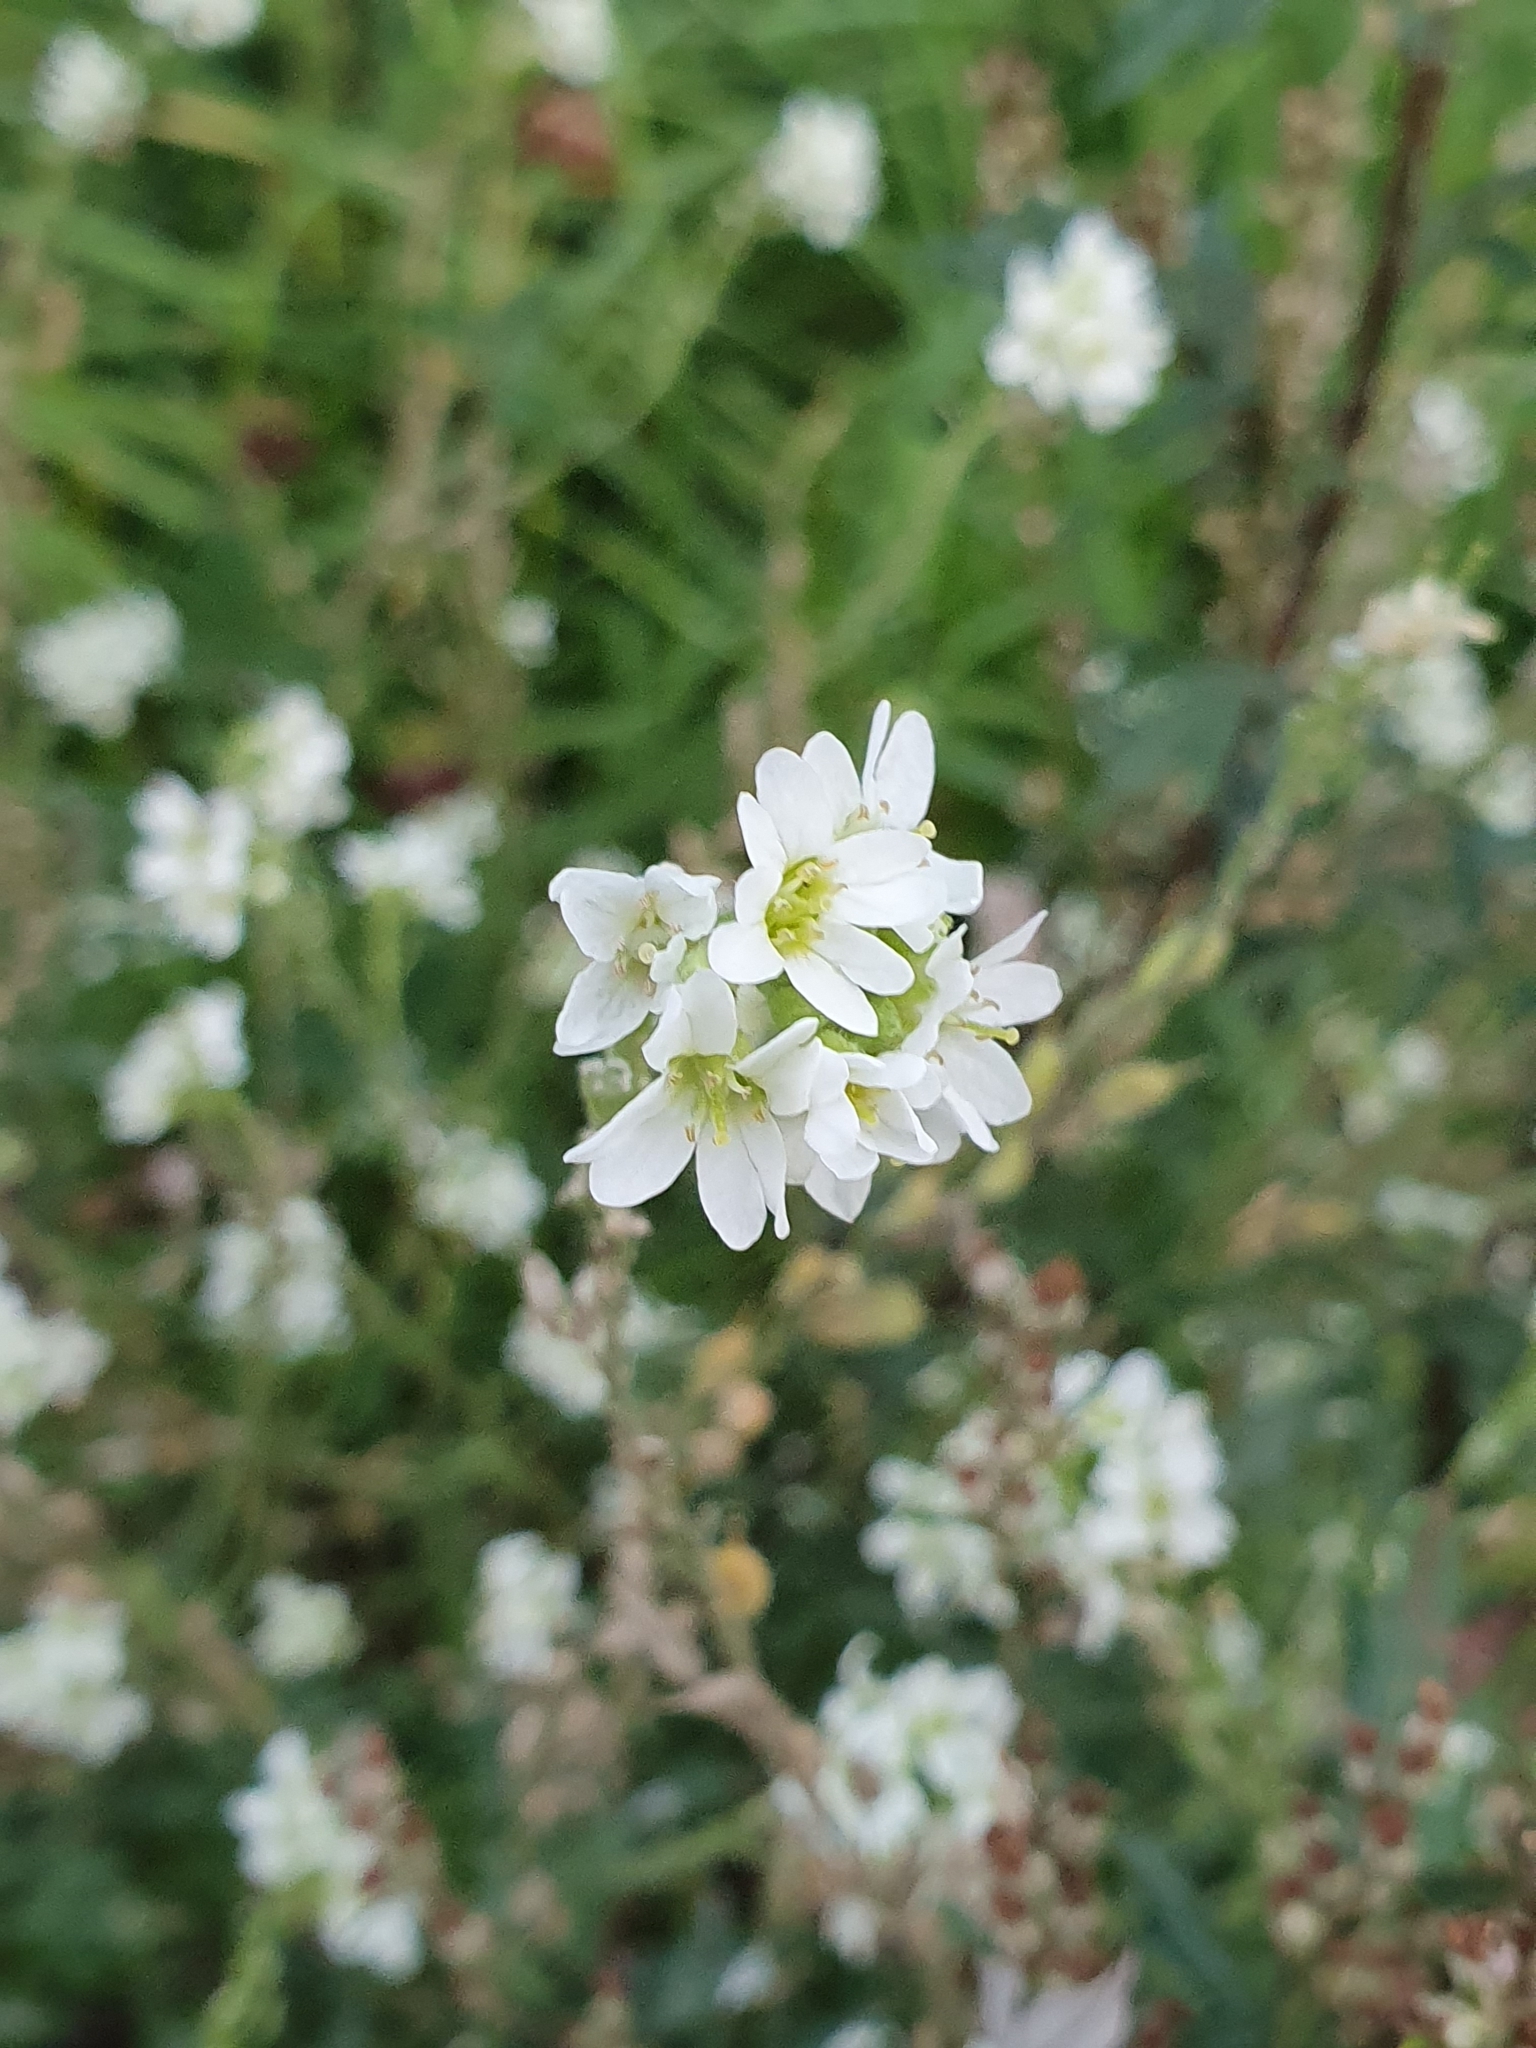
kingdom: Plantae
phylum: Tracheophyta
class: Magnoliopsida
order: Brassicales
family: Brassicaceae
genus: Berteroa
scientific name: Berteroa incana
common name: Hoary alison
